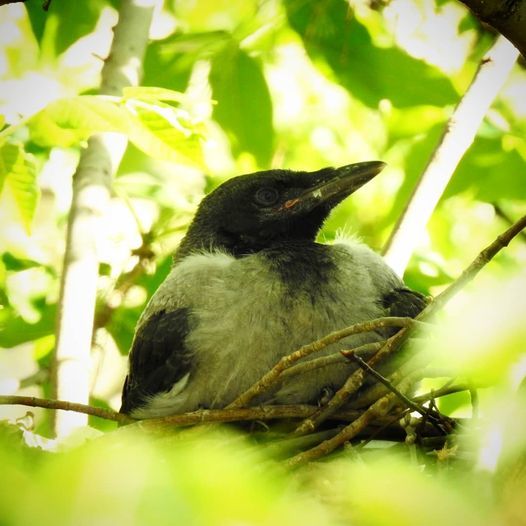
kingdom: Animalia
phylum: Chordata
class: Aves
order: Passeriformes
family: Corvidae
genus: Corvus
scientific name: Corvus cornix
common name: Hooded crow
